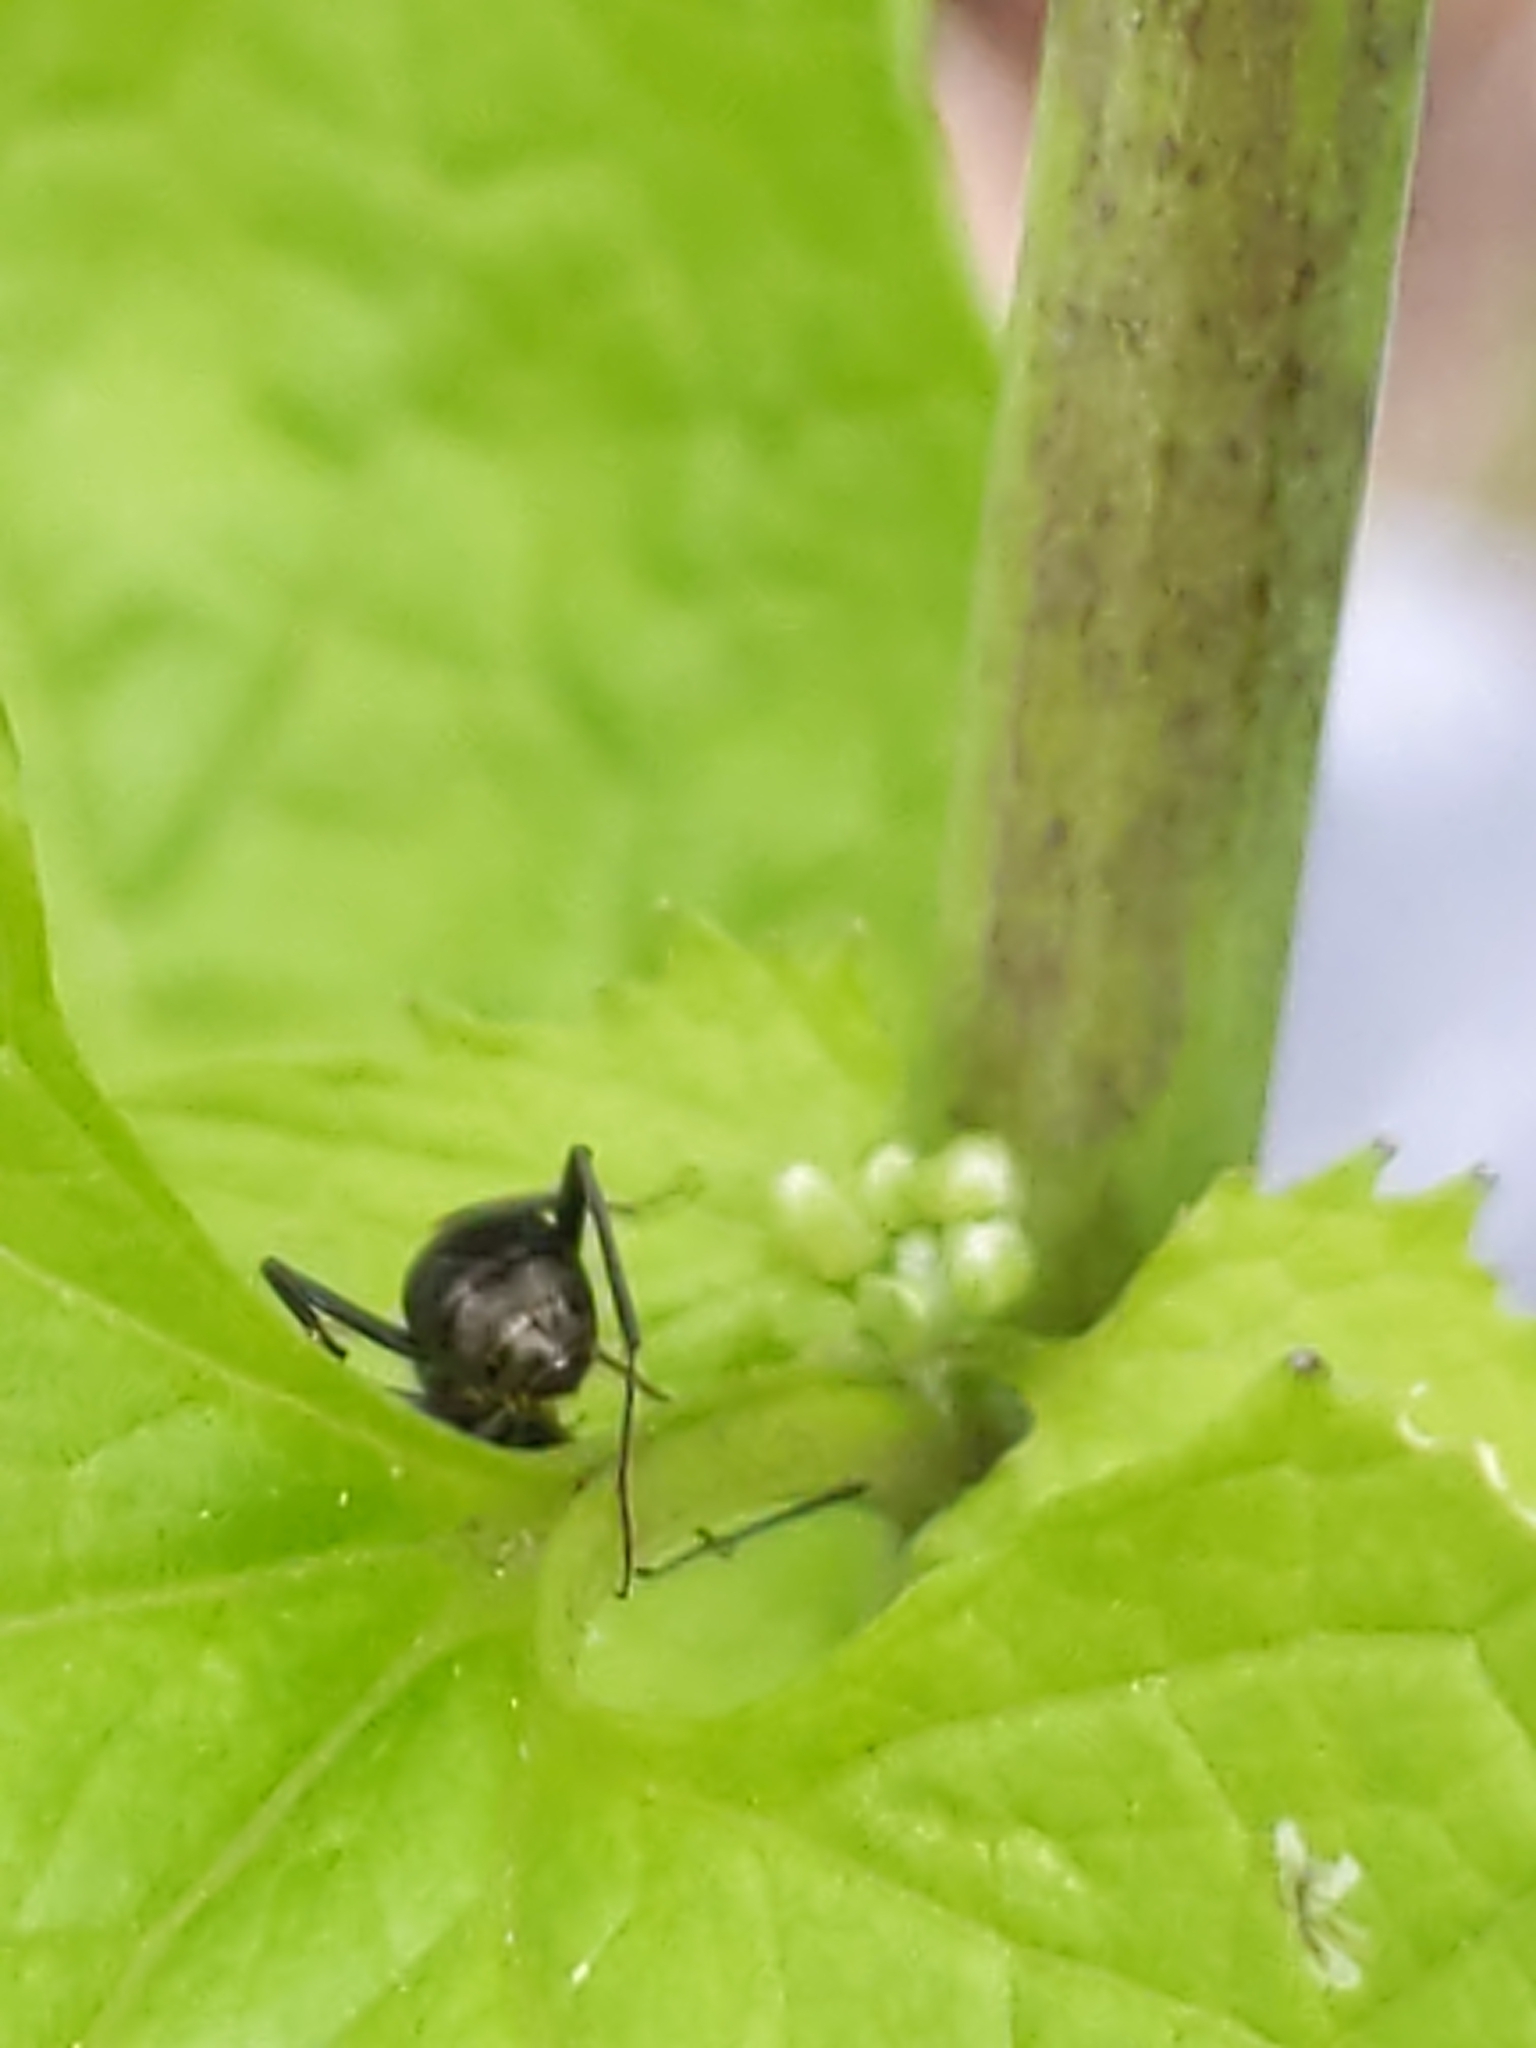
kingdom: Animalia
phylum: Arthropoda
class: Insecta
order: Hymenoptera
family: Formicidae
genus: Camponotus
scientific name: Camponotus
